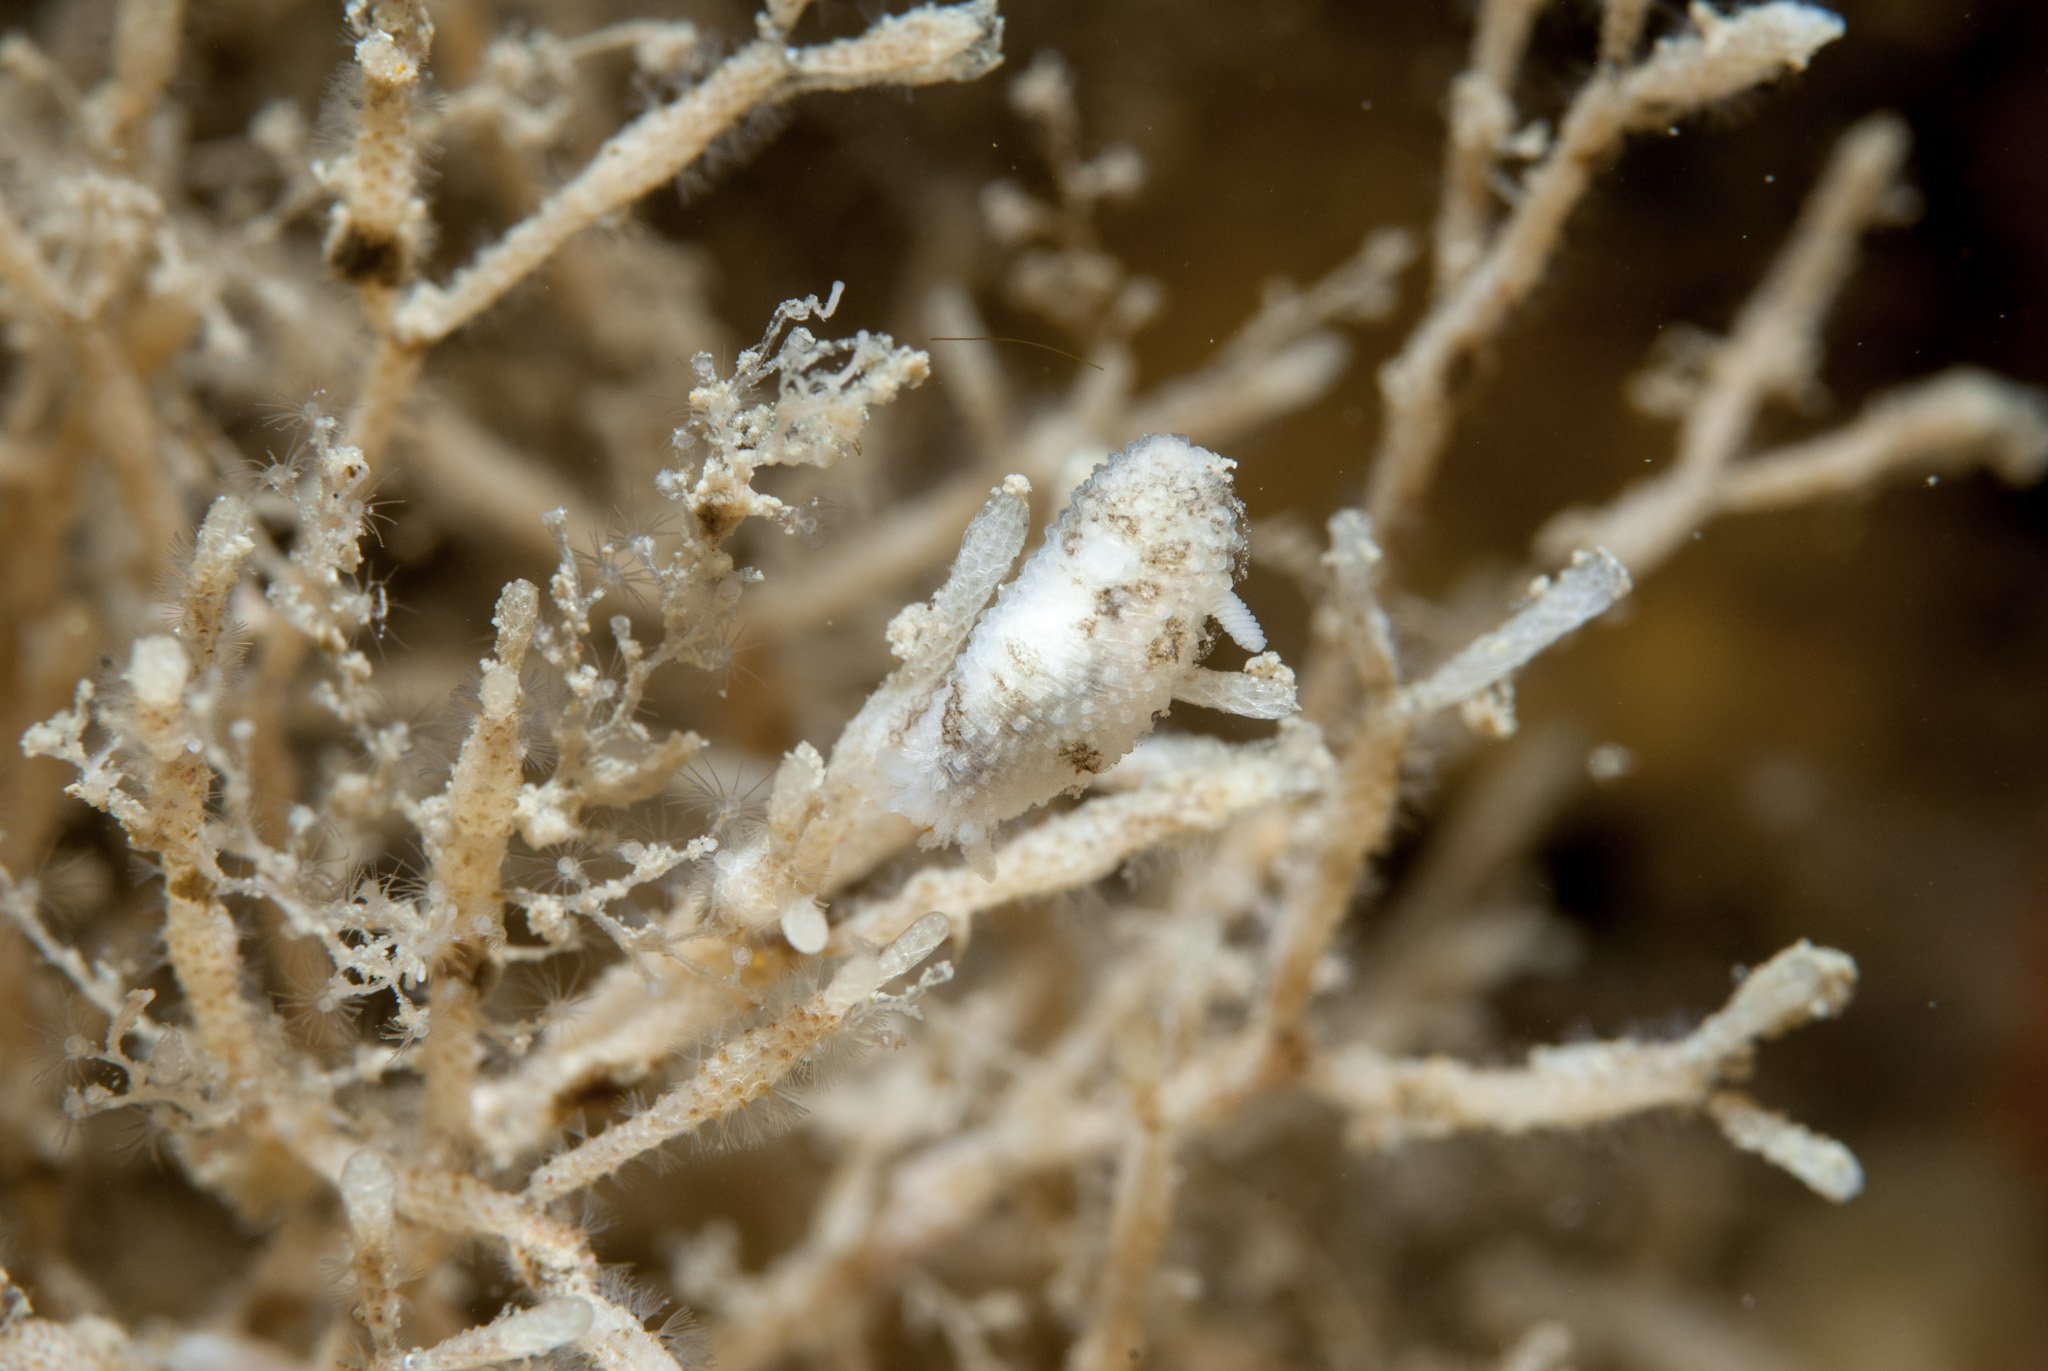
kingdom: Animalia
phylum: Mollusca
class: Gastropoda
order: Nudibranchia
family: Onchidorididae
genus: Atalodoris
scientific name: Atalodoris oblonga
